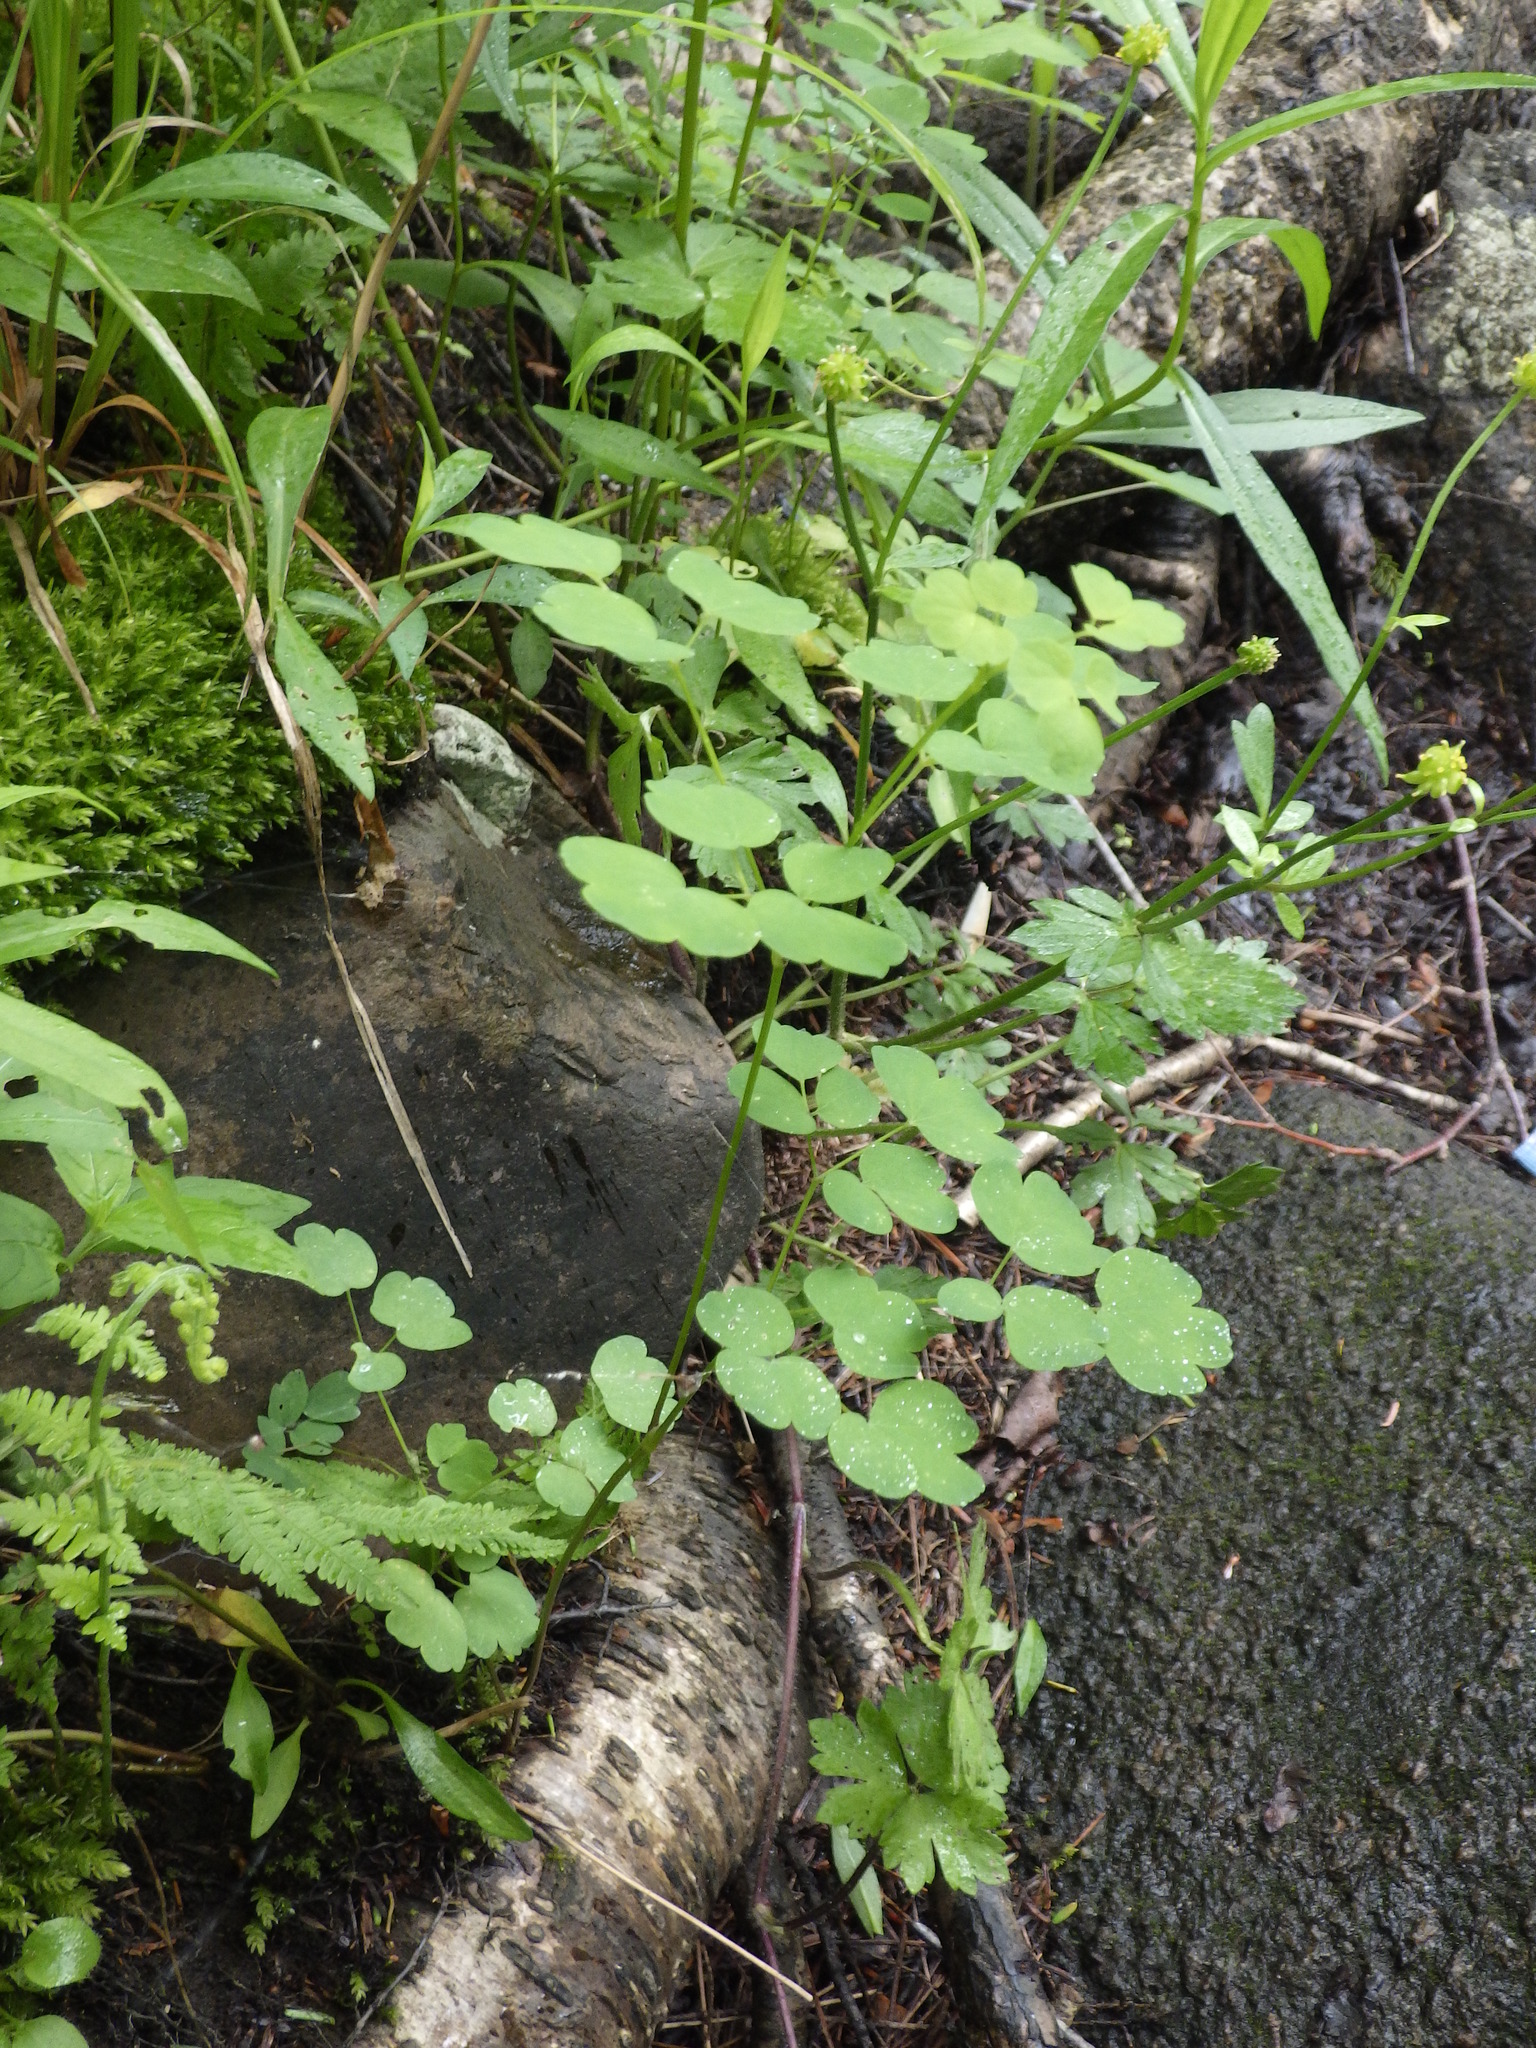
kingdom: Plantae
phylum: Tracheophyta
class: Magnoliopsida
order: Ranunculales
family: Ranunculaceae
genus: Thalictrum
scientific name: Thalictrum pubescens
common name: King-of-the-meadow
